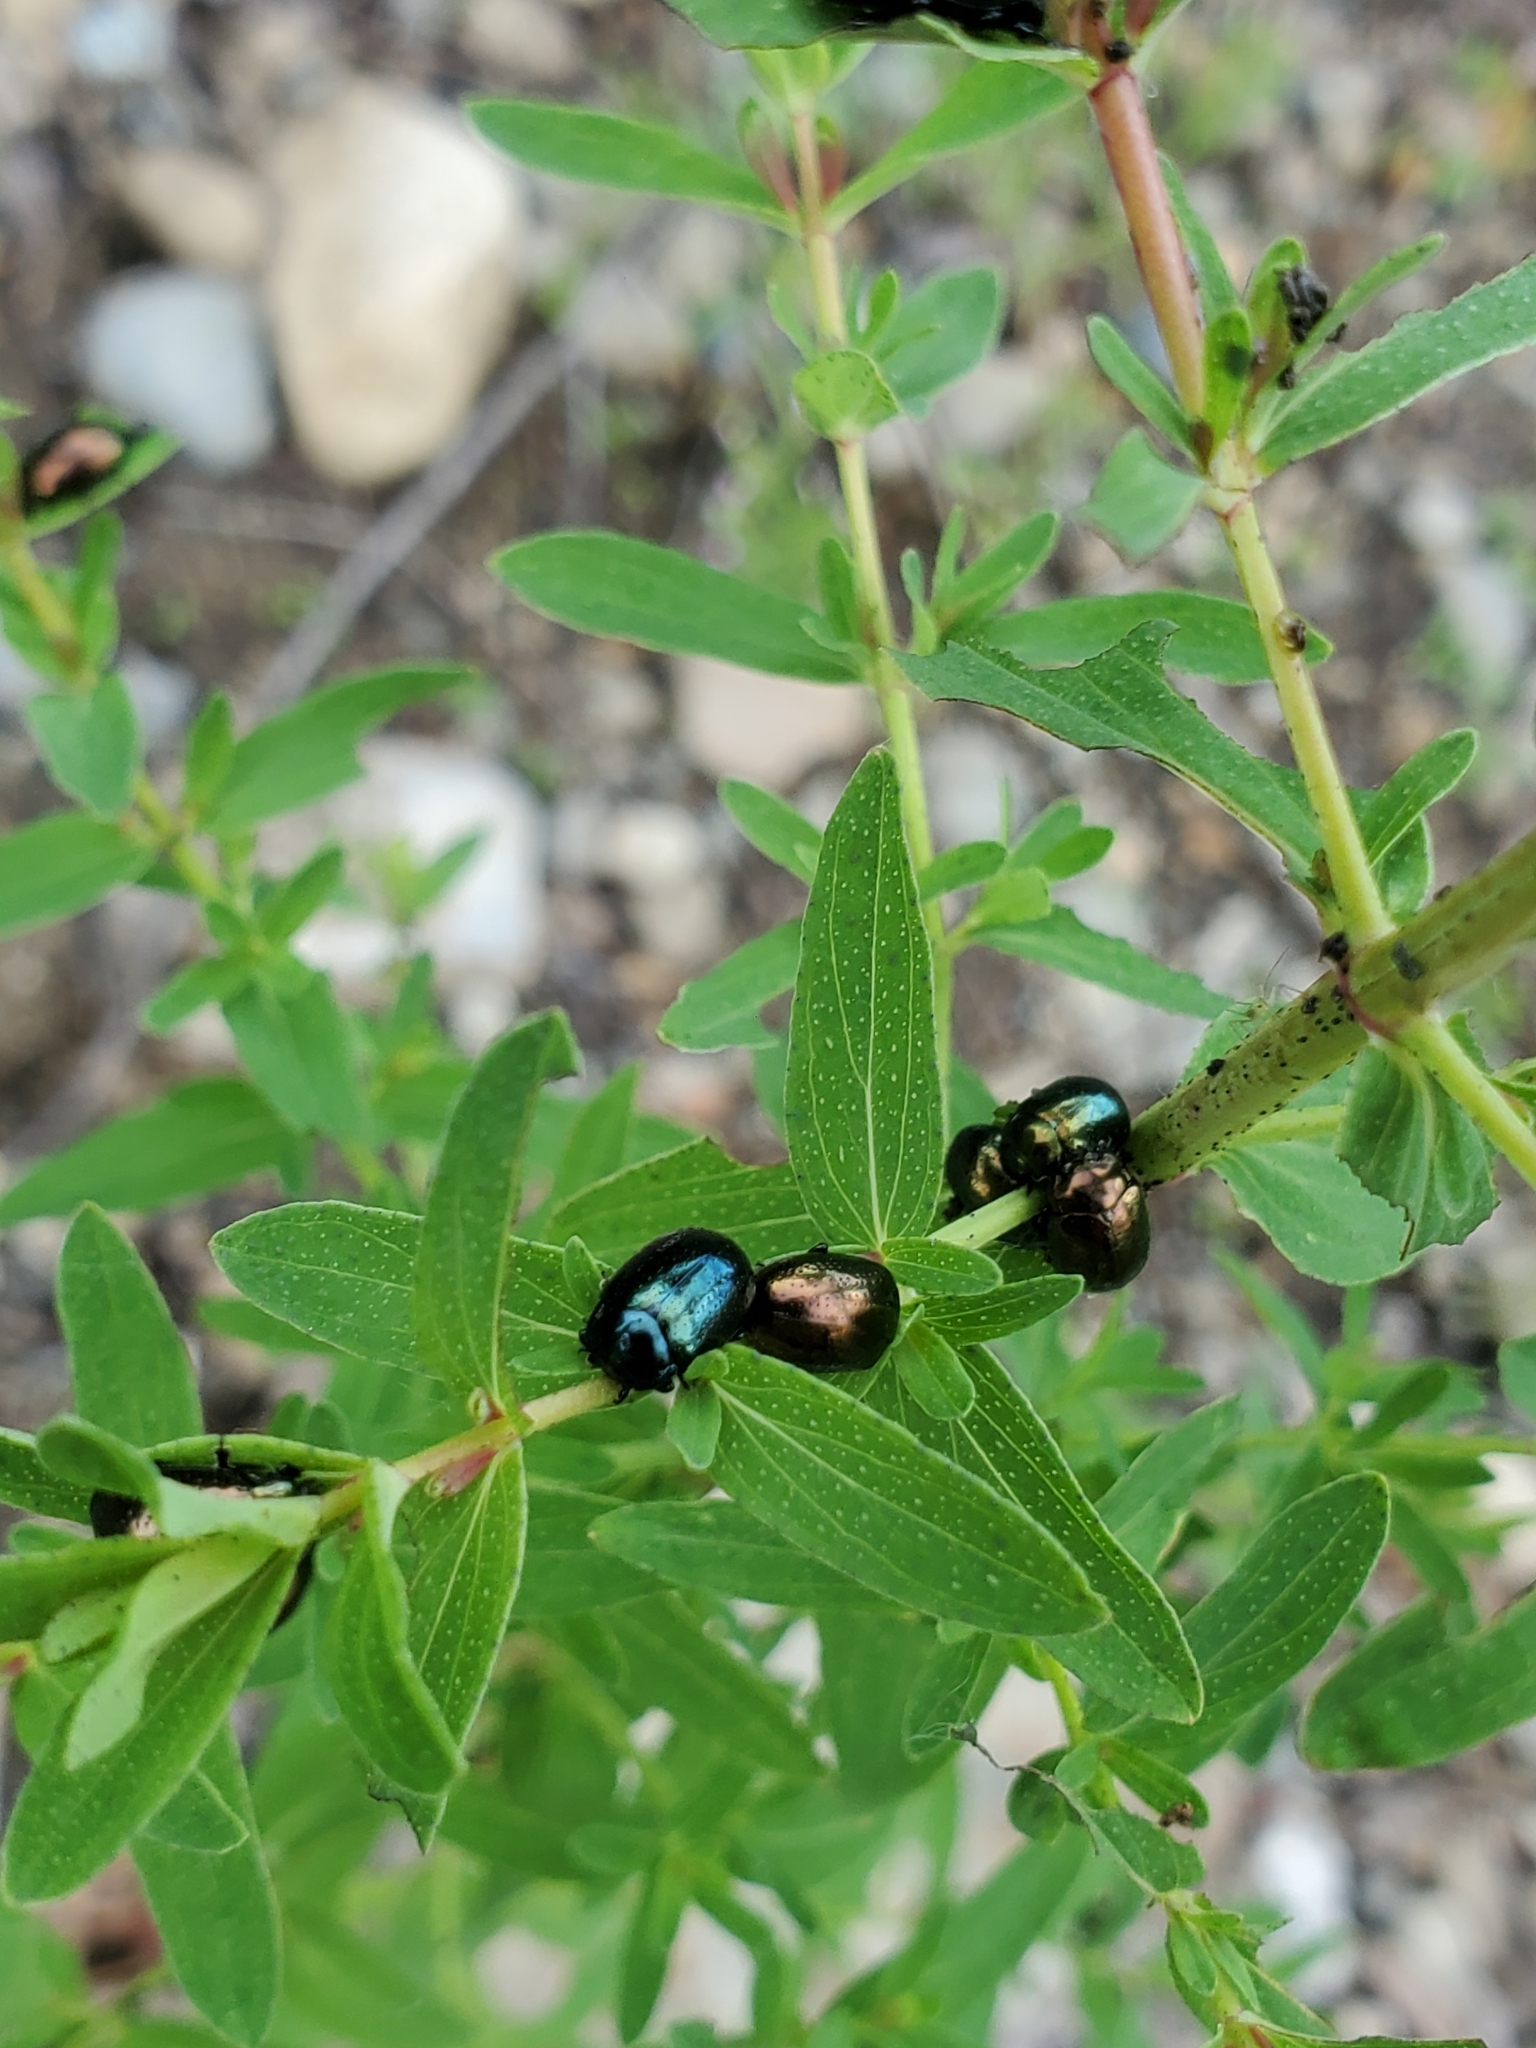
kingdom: Animalia
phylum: Arthropoda
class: Insecta
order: Coleoptera
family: Chrysomelidae
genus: Chrysolina
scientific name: Chrysolina hyperici
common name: St. johnswort beetle
